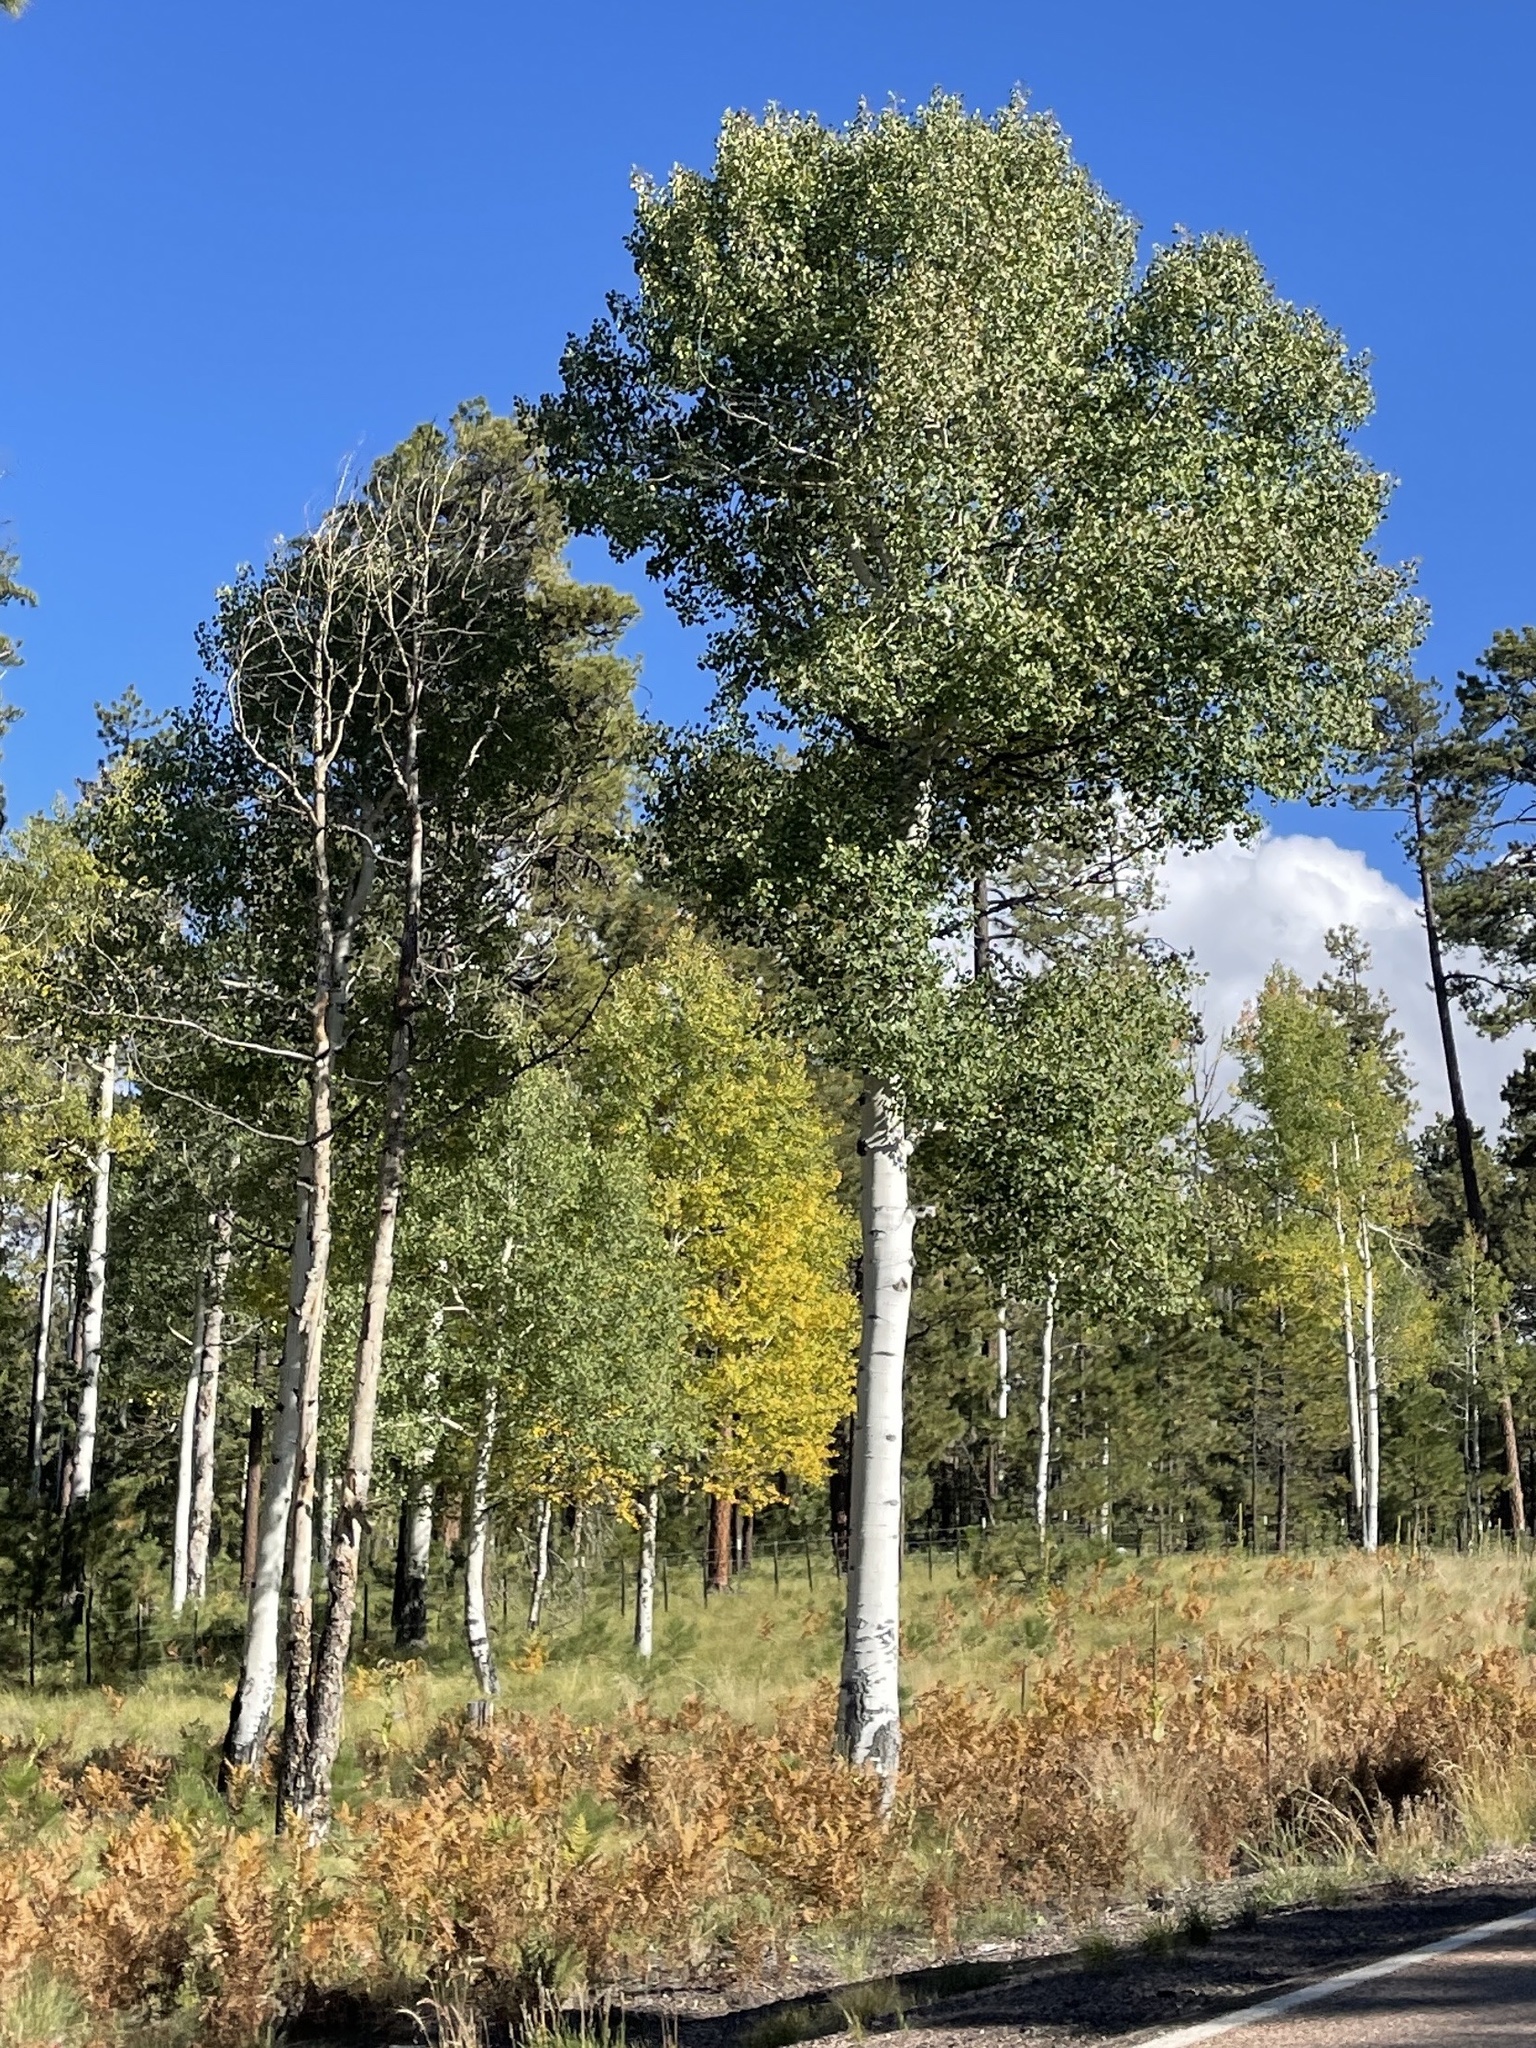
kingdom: Plantae
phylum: Tracheophyta
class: Magnoliopsida
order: Malpighiales
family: Salicaceae
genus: Populus
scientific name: Populus tremuloides
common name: Quaking aspen
